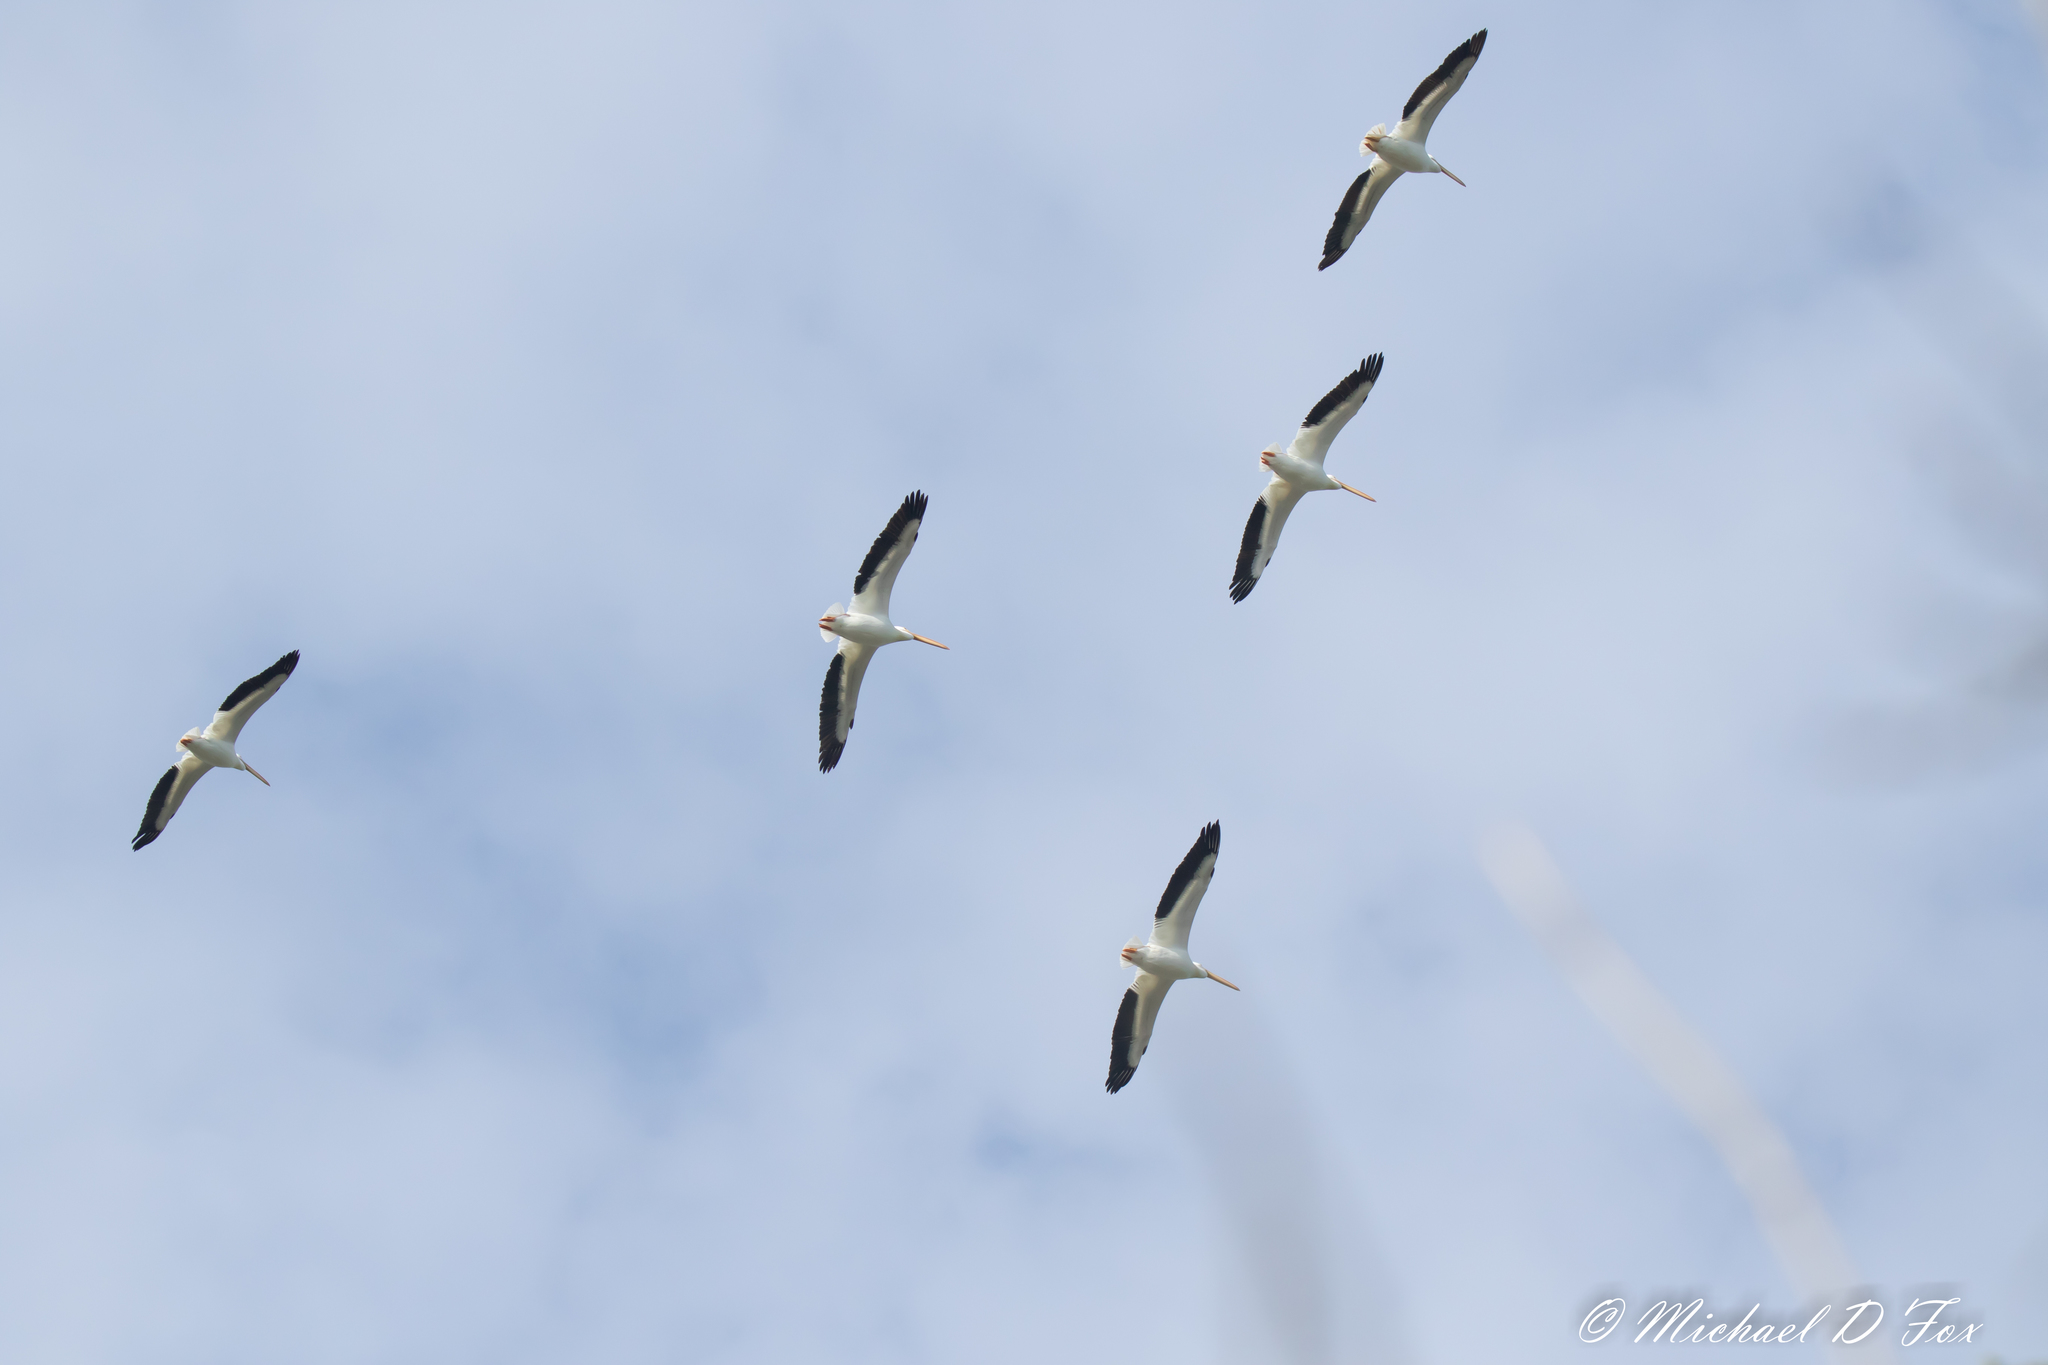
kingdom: Animalia
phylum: Chordata
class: Aves
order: Pelecaniformes
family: Pelecanidae
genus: Pelecanus
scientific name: Pelecanus erythrorhynchos
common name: American white pelican
